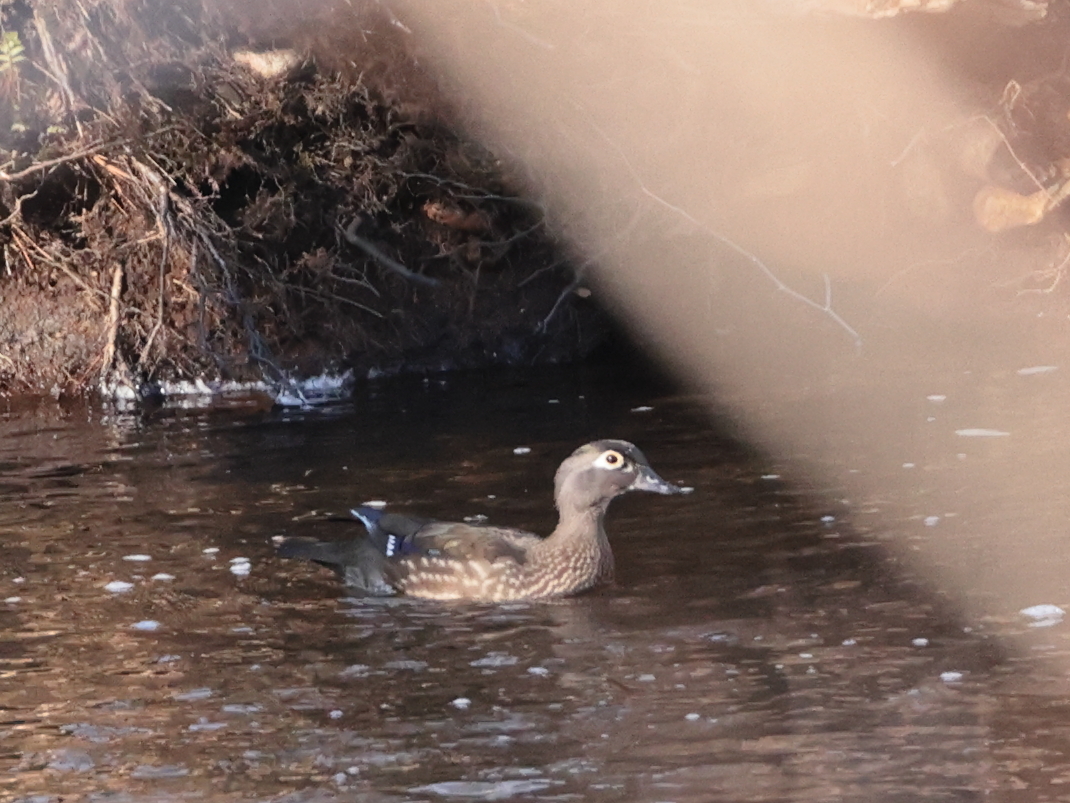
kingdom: Animalia
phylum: Chordata
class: Aves
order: Anseriformes
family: Anatidae
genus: Aix
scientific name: Aix sponsa
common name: Wood duck
